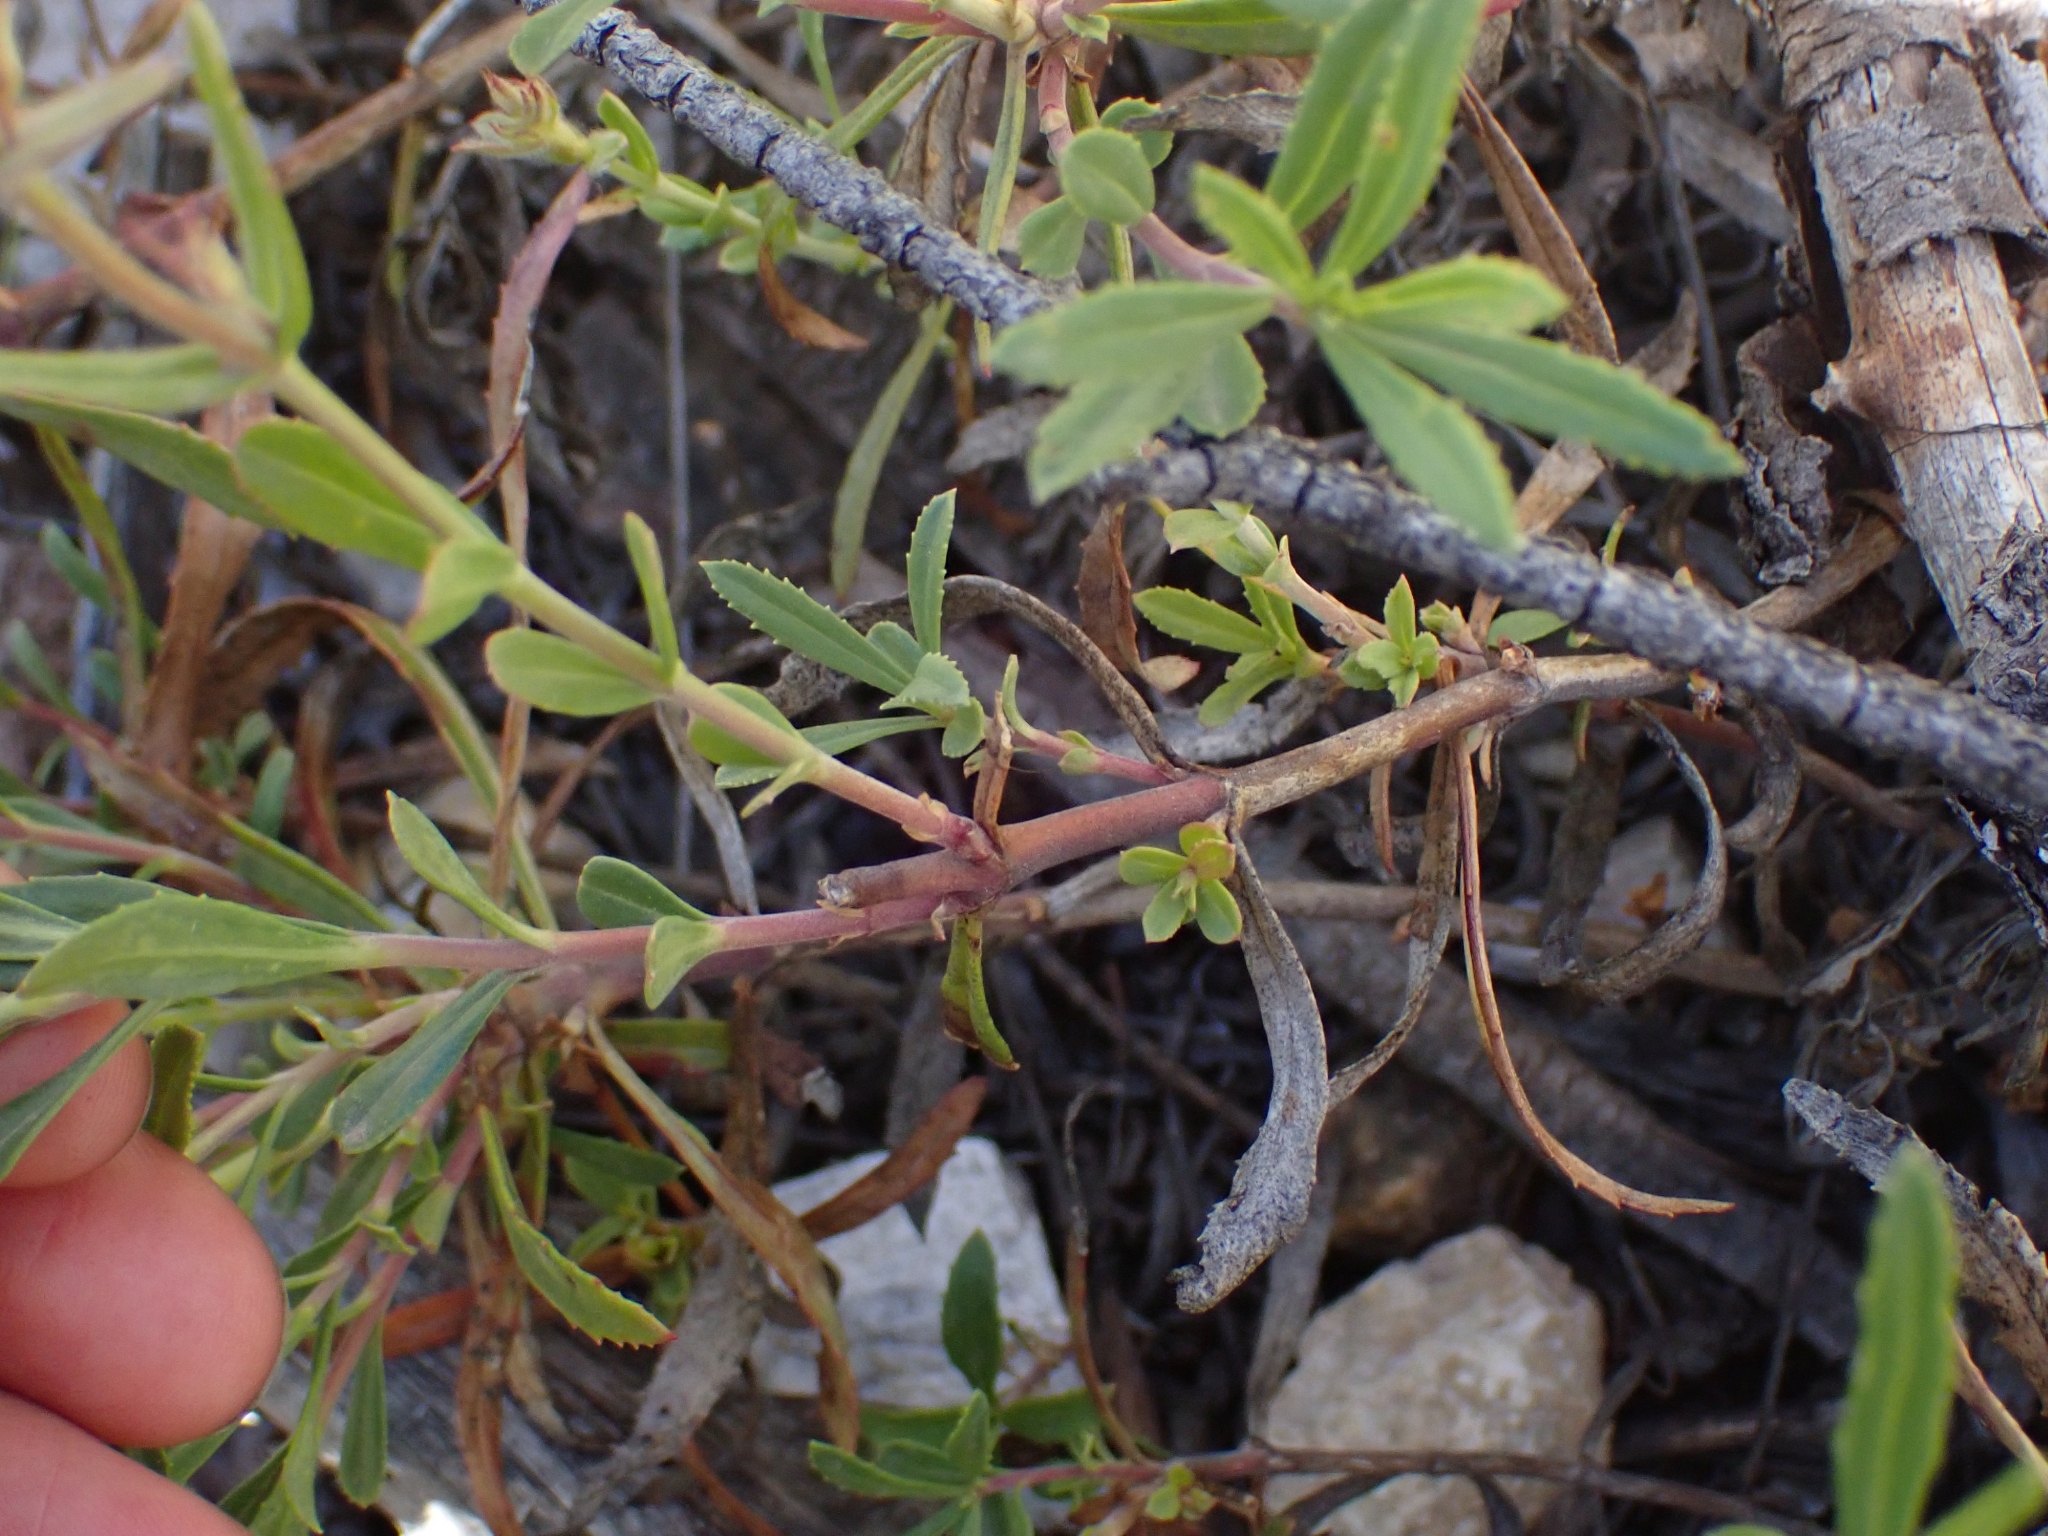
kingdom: Plantae
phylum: Tracheophyta
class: Magnoliopsida
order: Lamiales
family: Plantaginaceae
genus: Penstemon
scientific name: Penstemon fruticosus
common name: Bush penstemon
